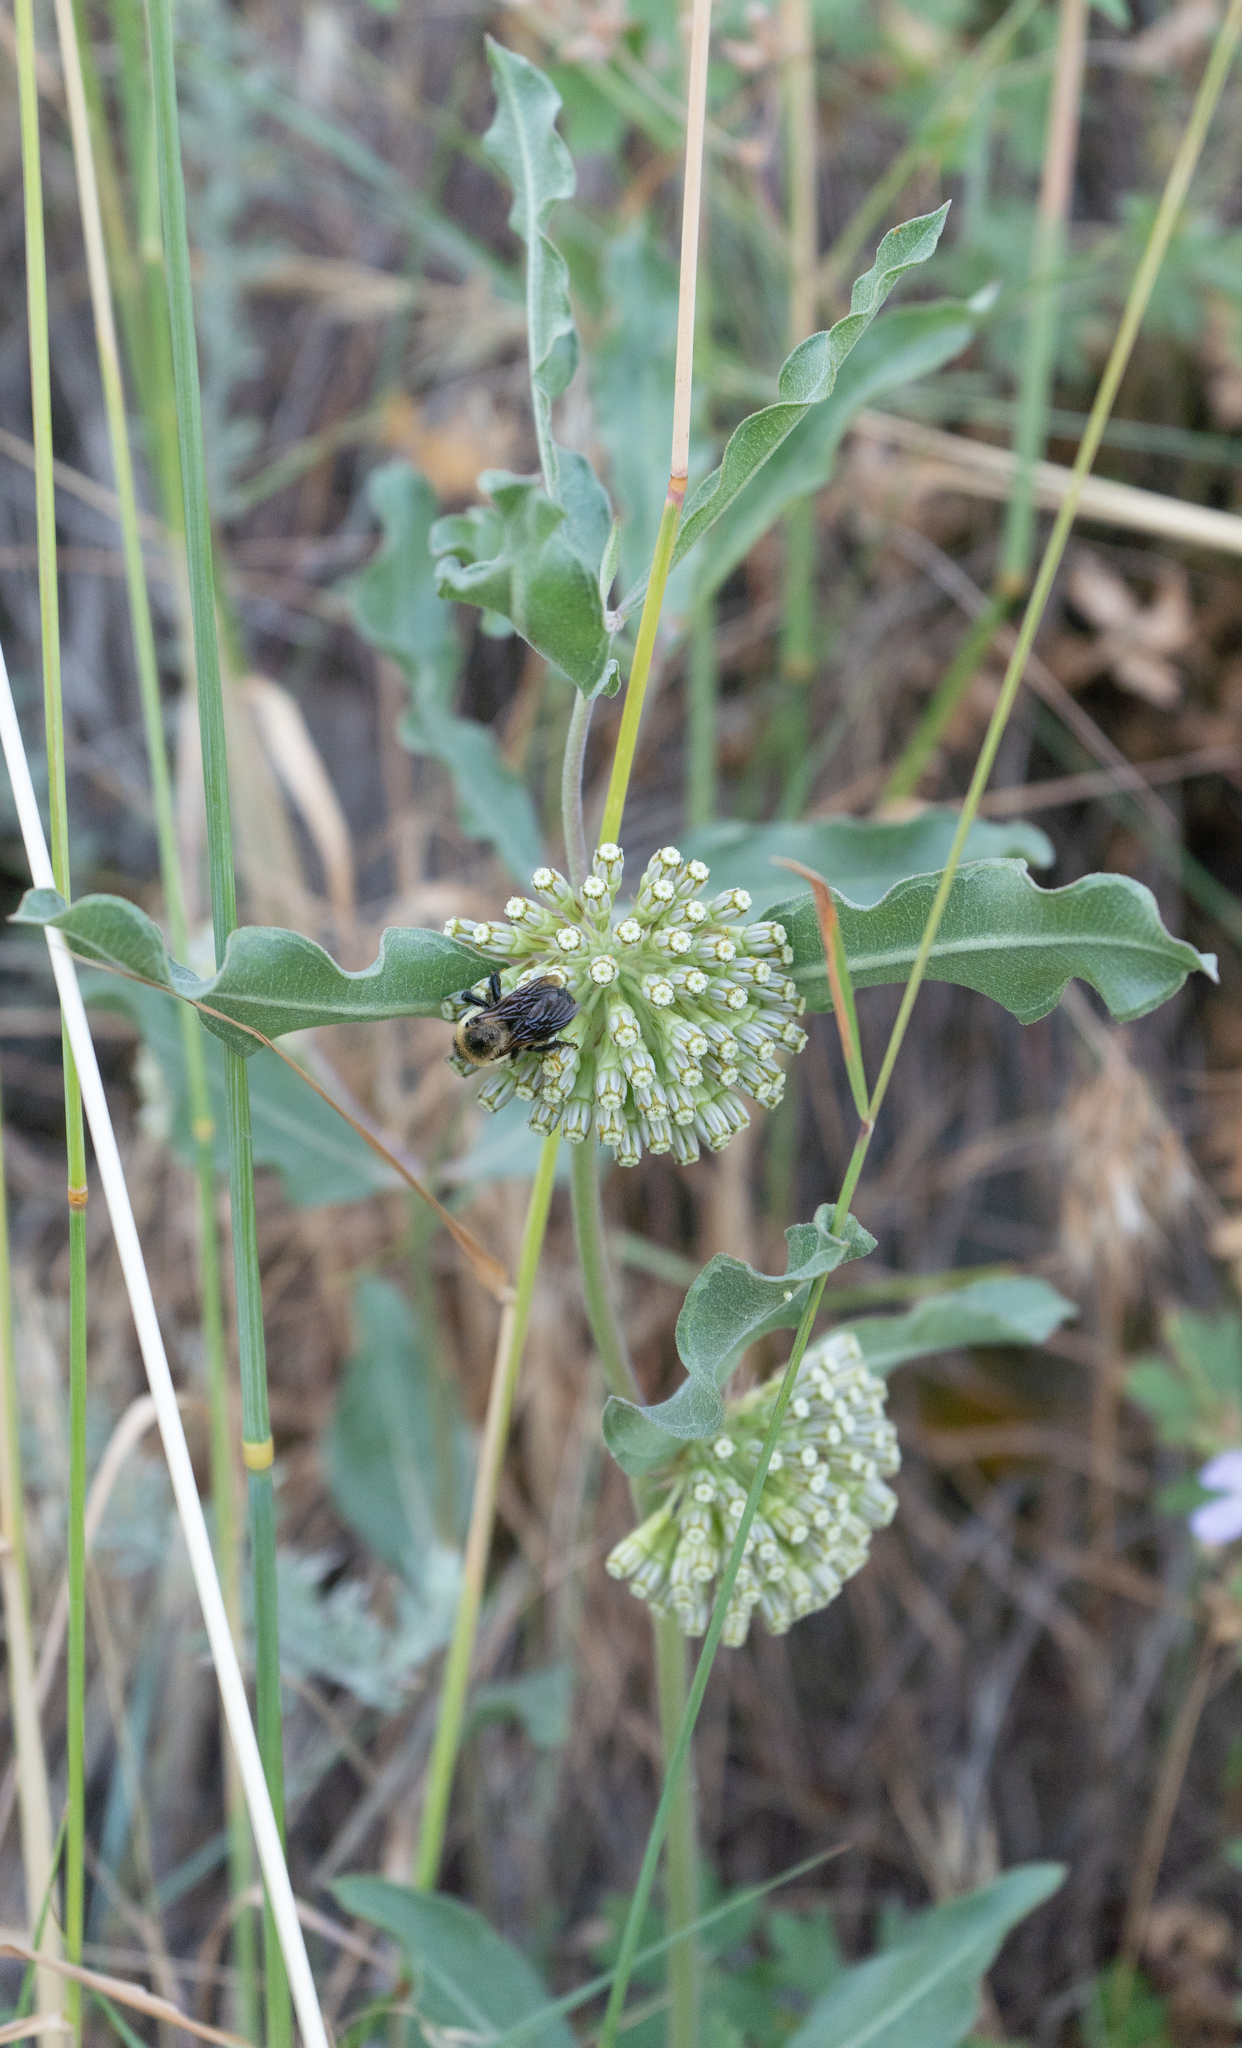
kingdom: Plantae
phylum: Tracheophyta
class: Magnoliopsida
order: Gentianales
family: Apocynaceae
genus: Asclepias
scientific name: Asclepias viridiflora
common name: Green comet milkweed
